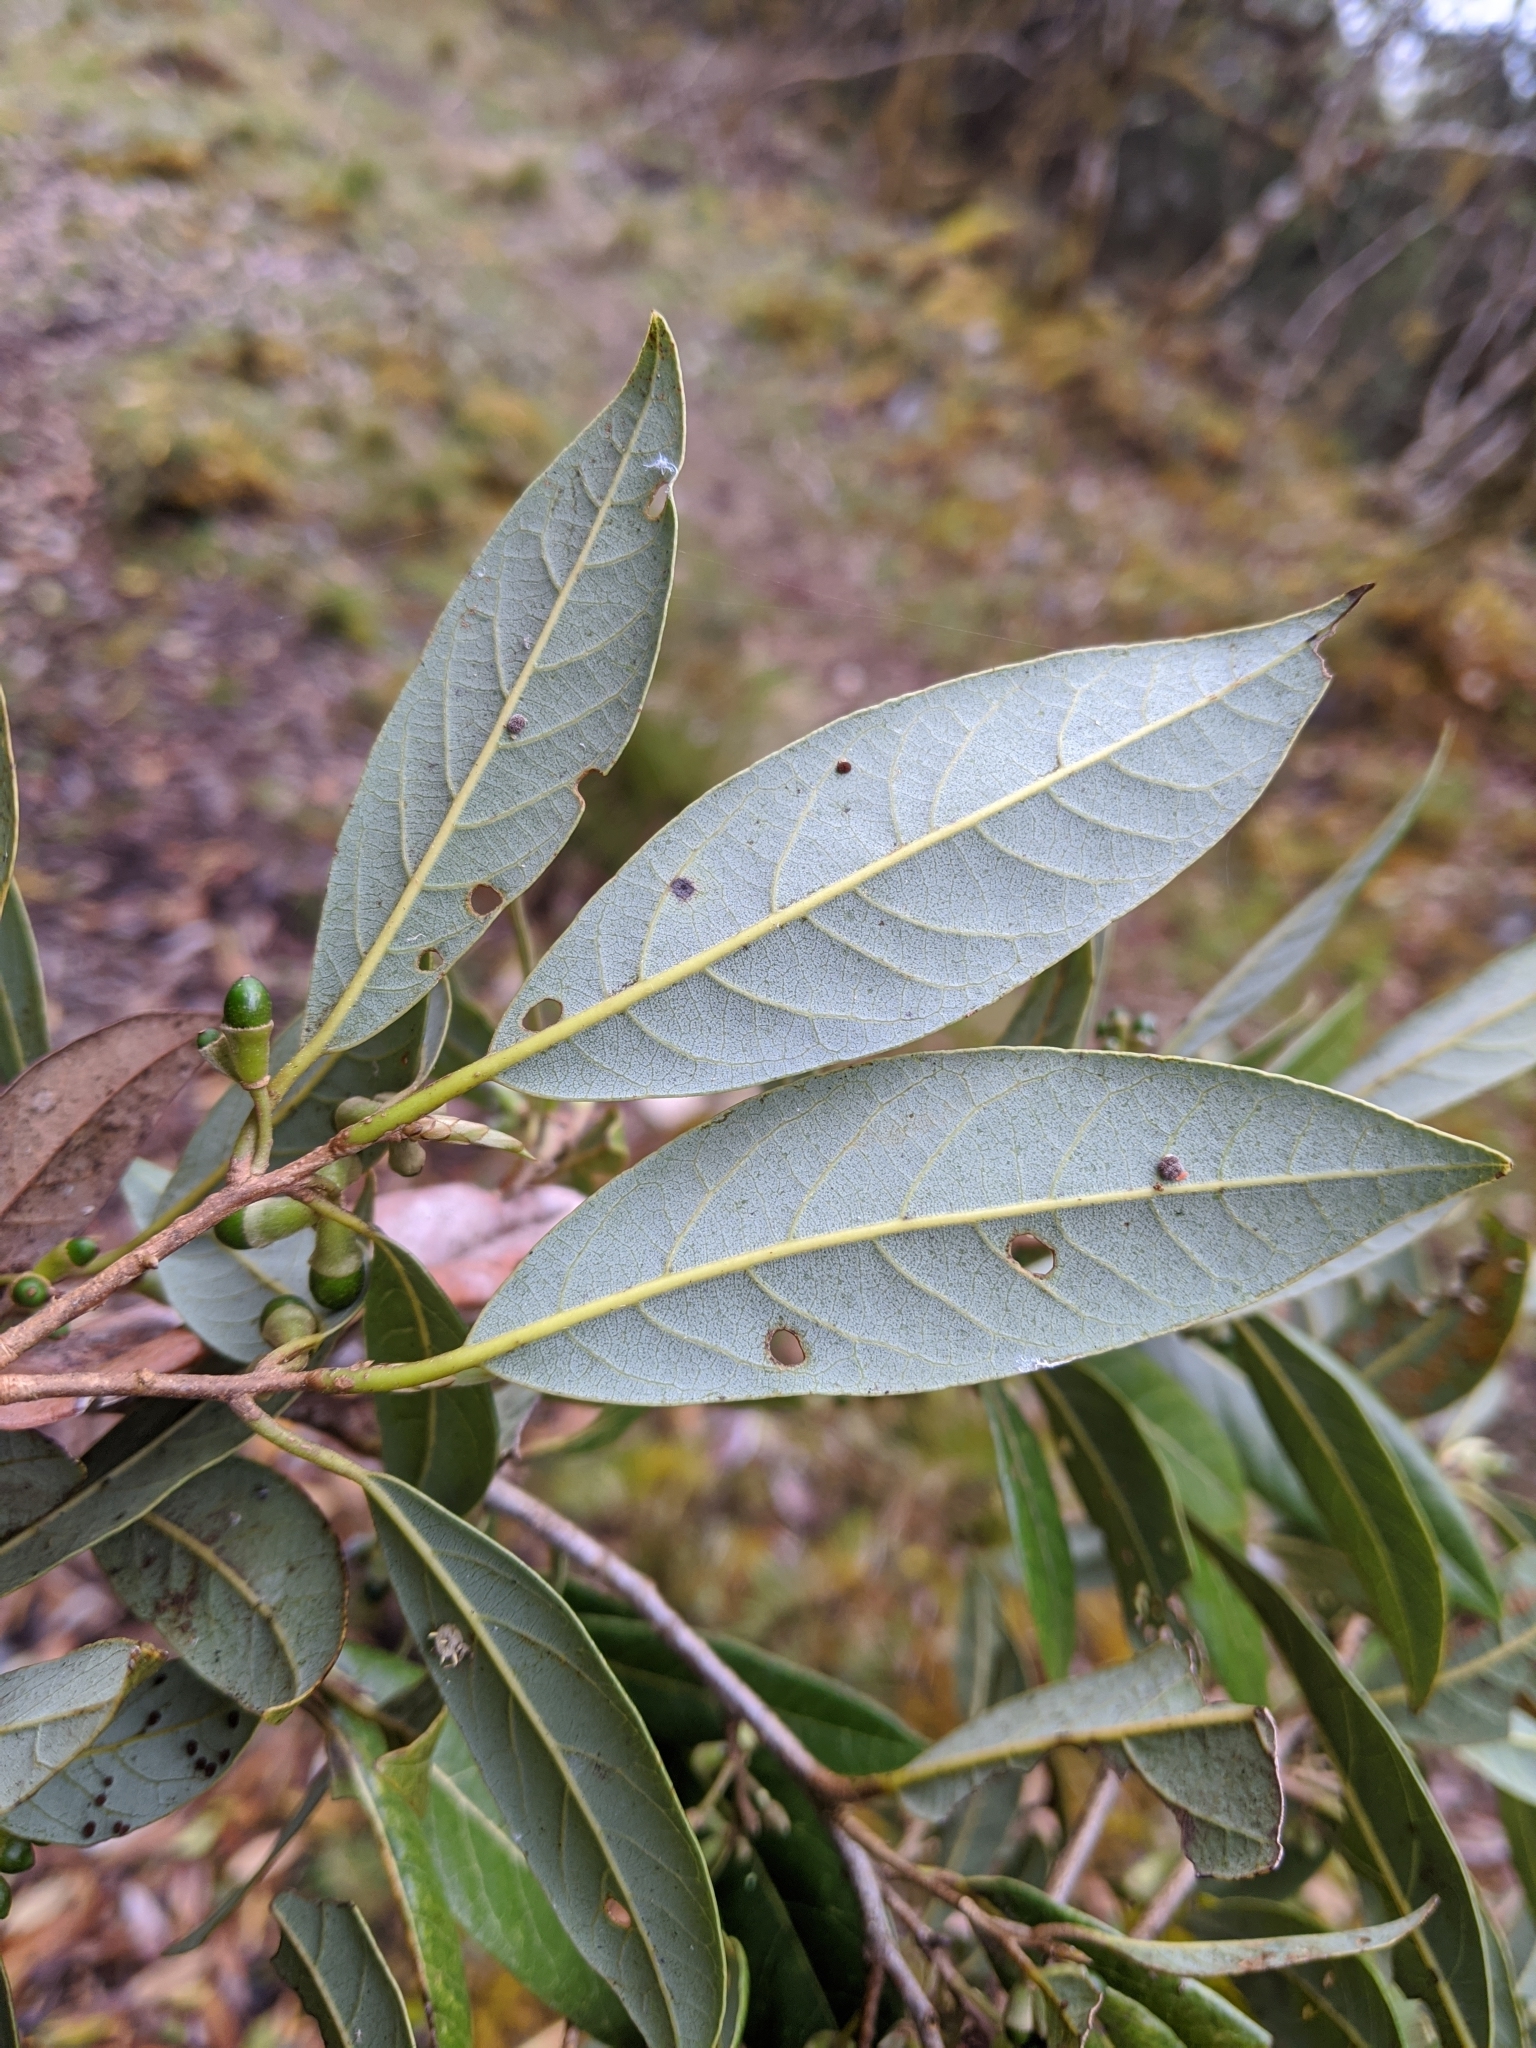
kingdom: Plantae
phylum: Tracheophyta
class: Magnoliopsida
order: Laurales
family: Lauraceae
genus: Litsea
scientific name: Litsea morrisonensis
